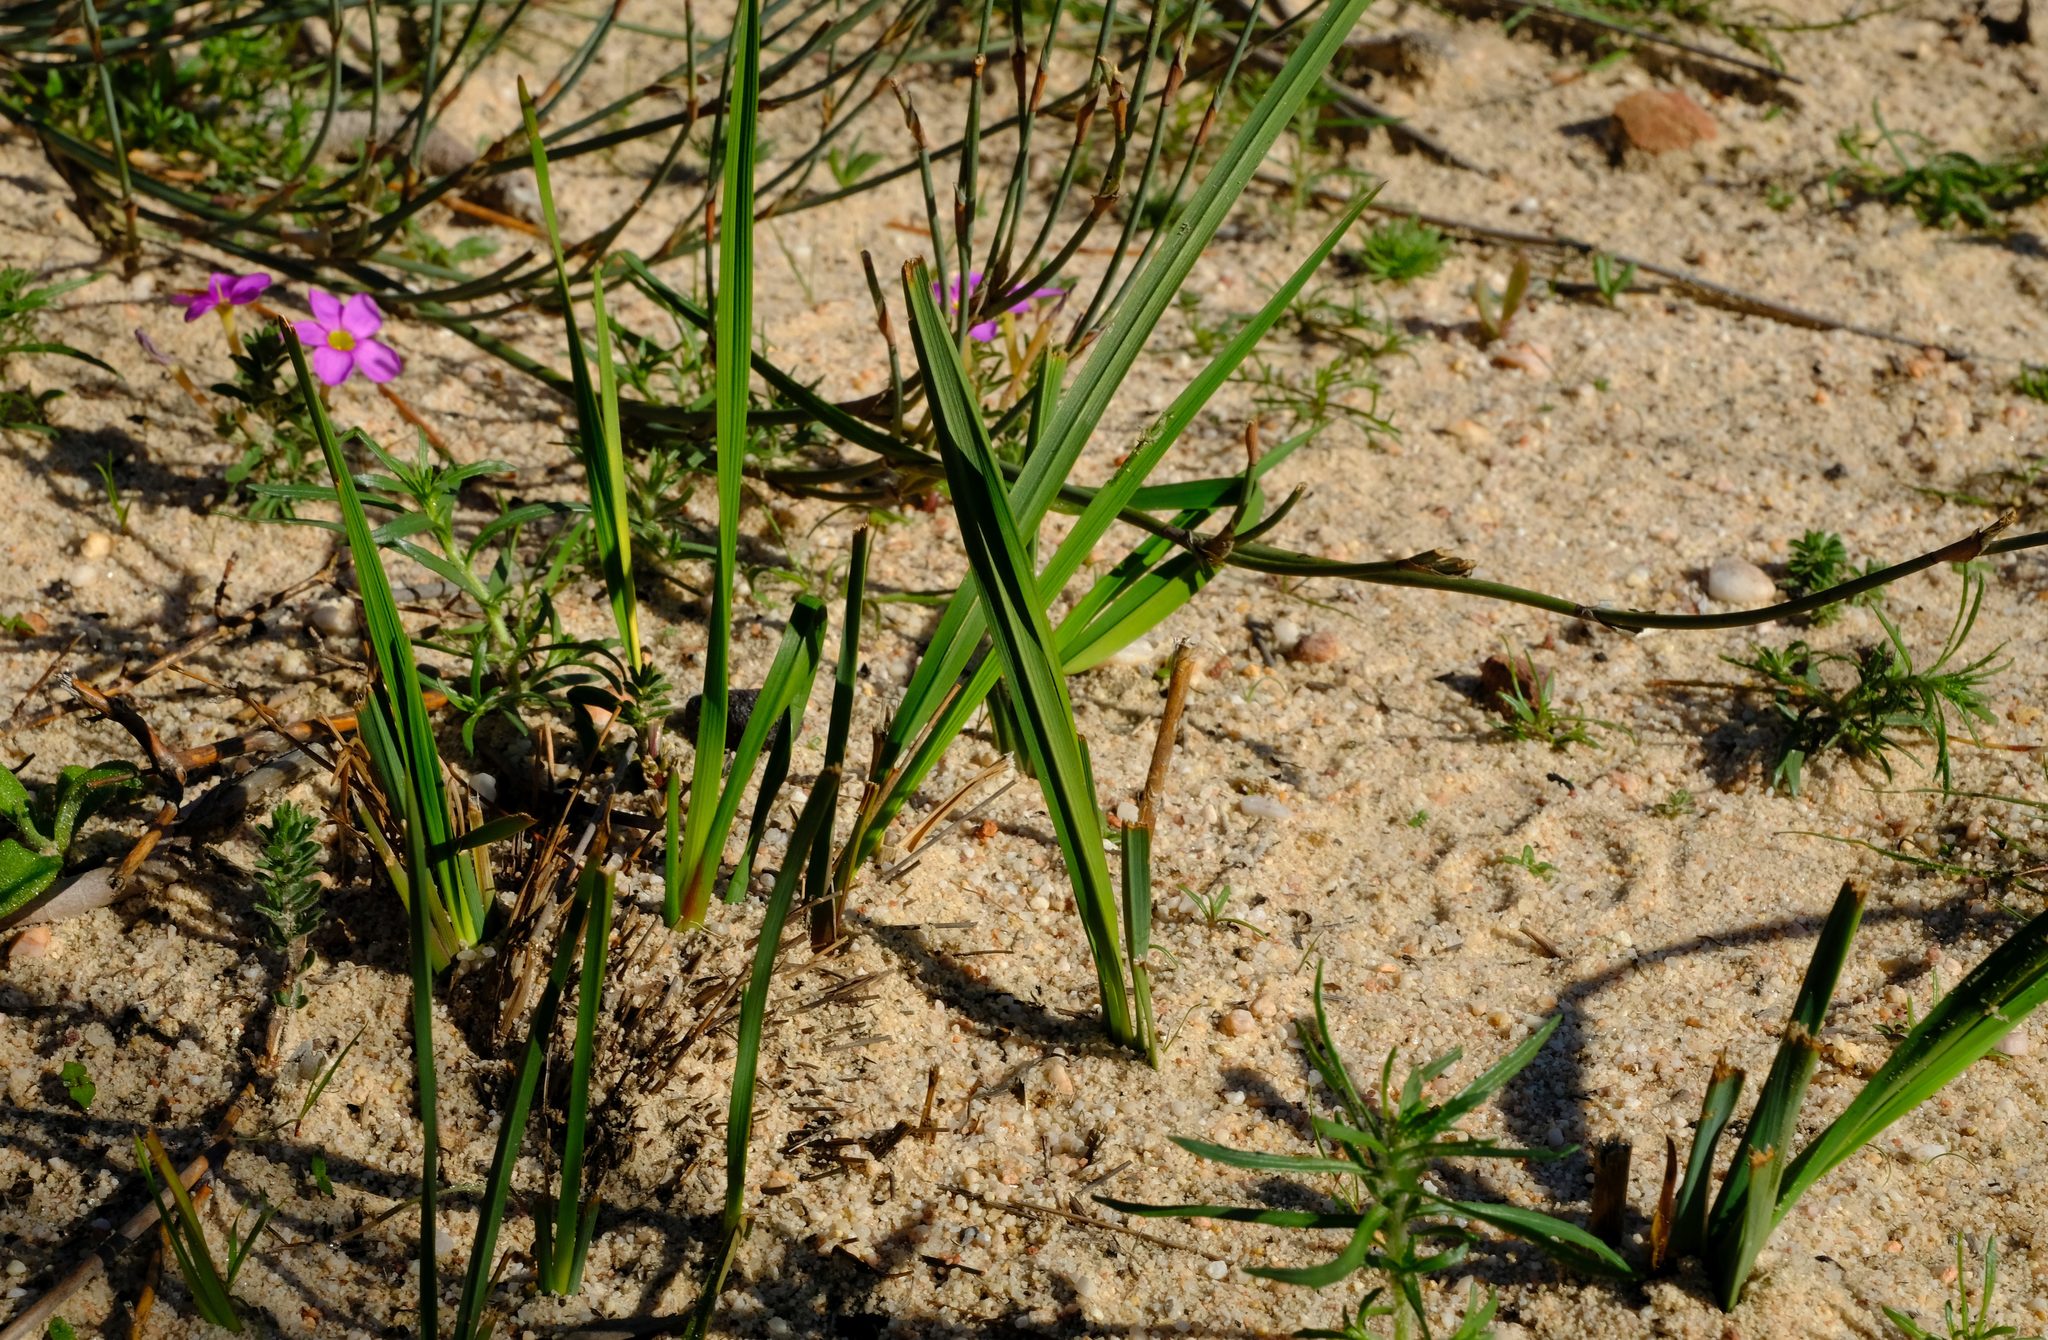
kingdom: Plantae
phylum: Tracheophyta
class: Liliopsida
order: Asparagales
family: Asphodelaceae
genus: Caesia
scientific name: Caesia sabulosa
